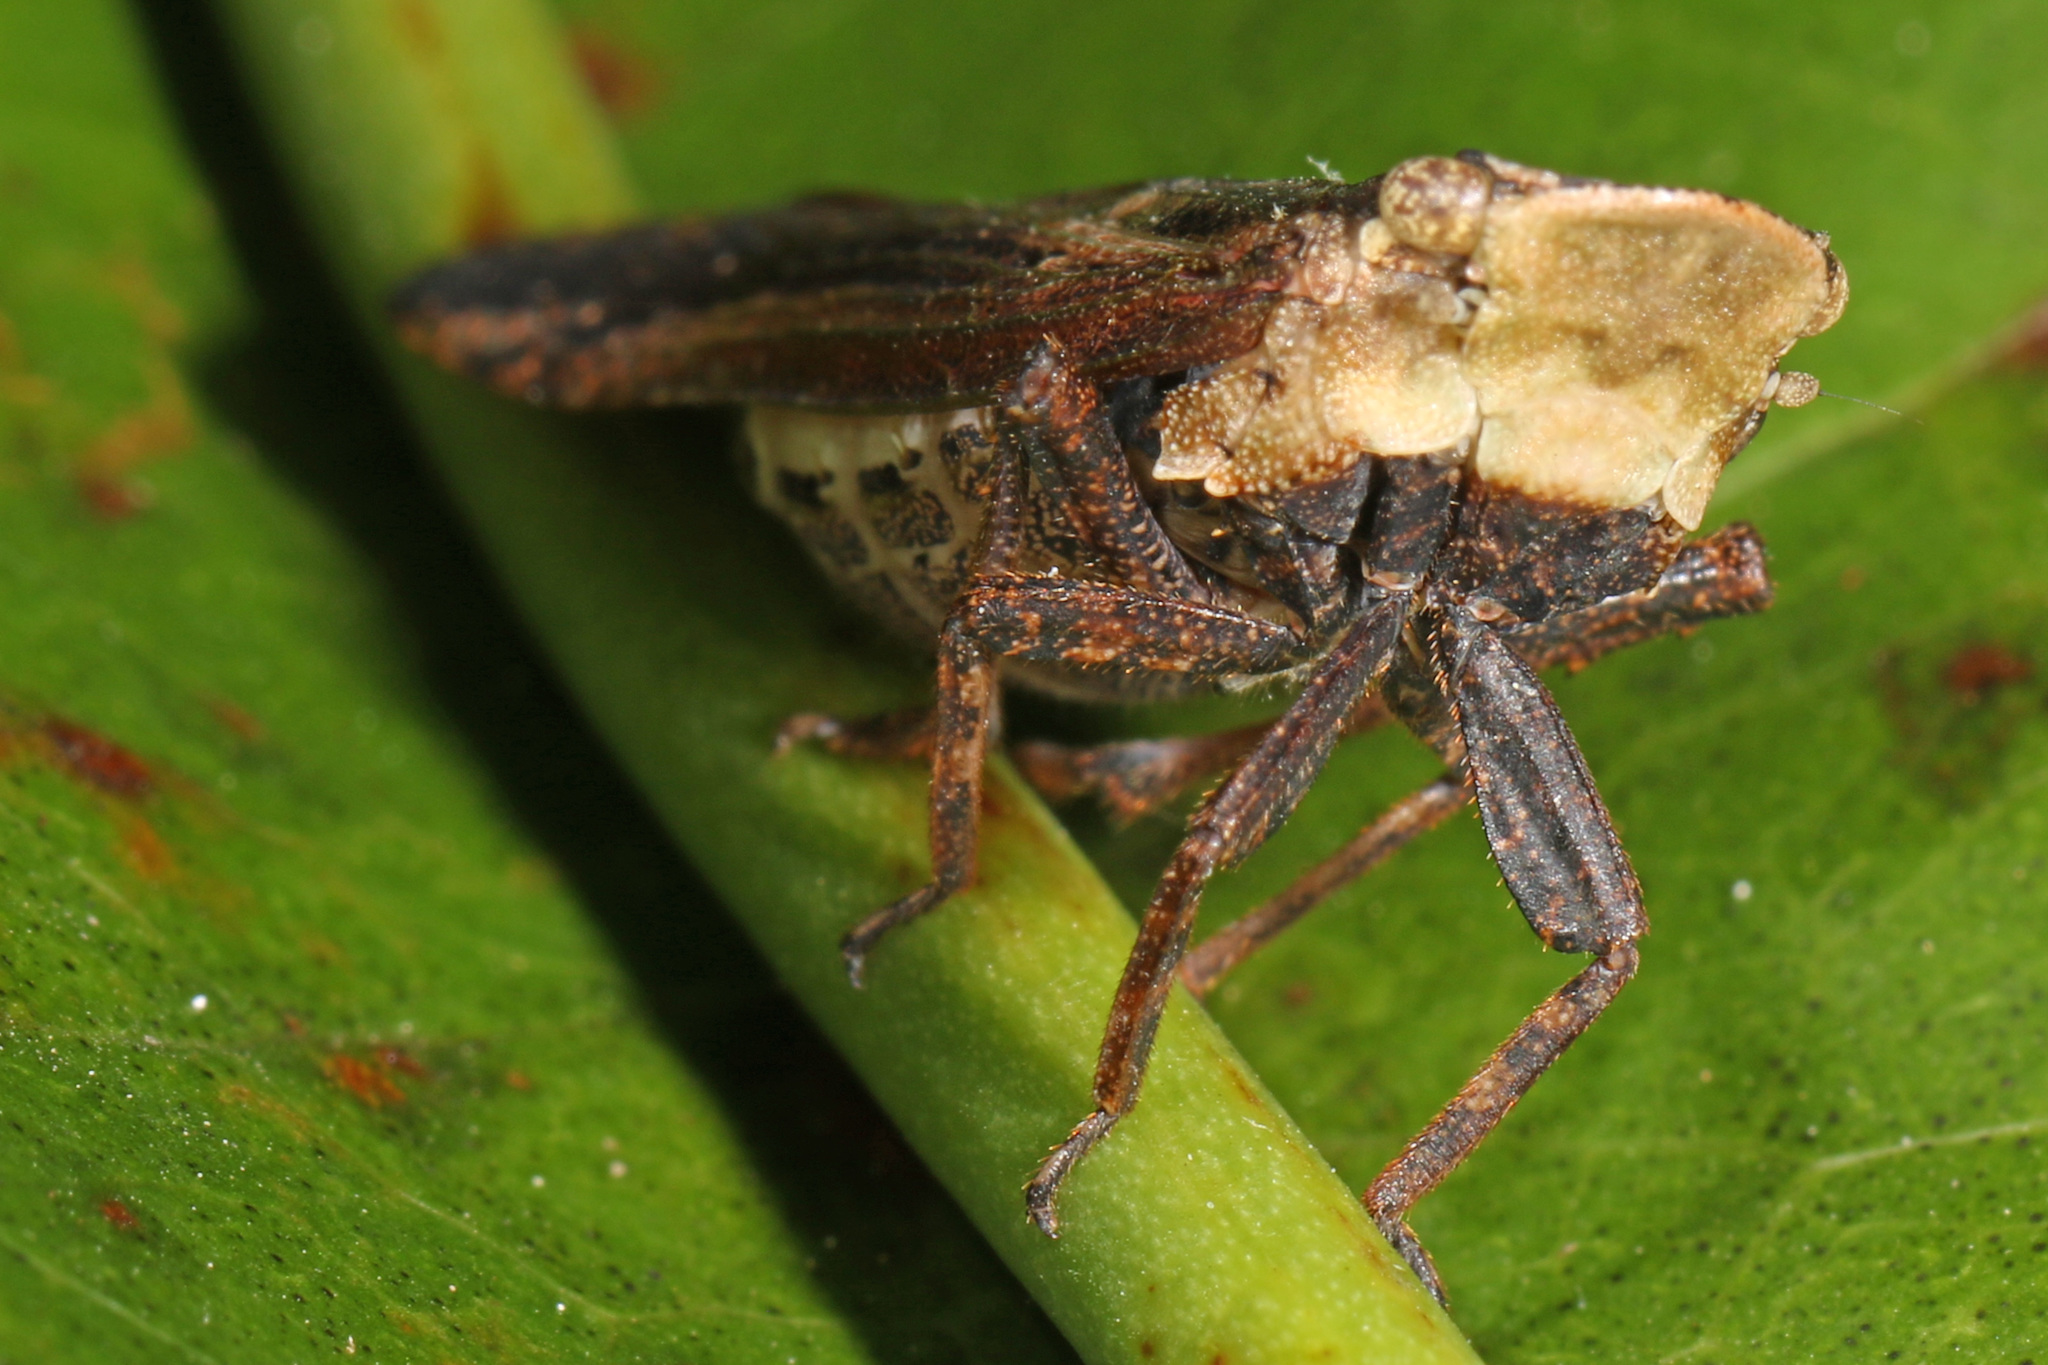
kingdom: Animalia
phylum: Arthropoda
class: Insecta
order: Hemiptera
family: Fulgoridae
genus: Cyrpoptus
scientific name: Cyrpoptus belfragei
